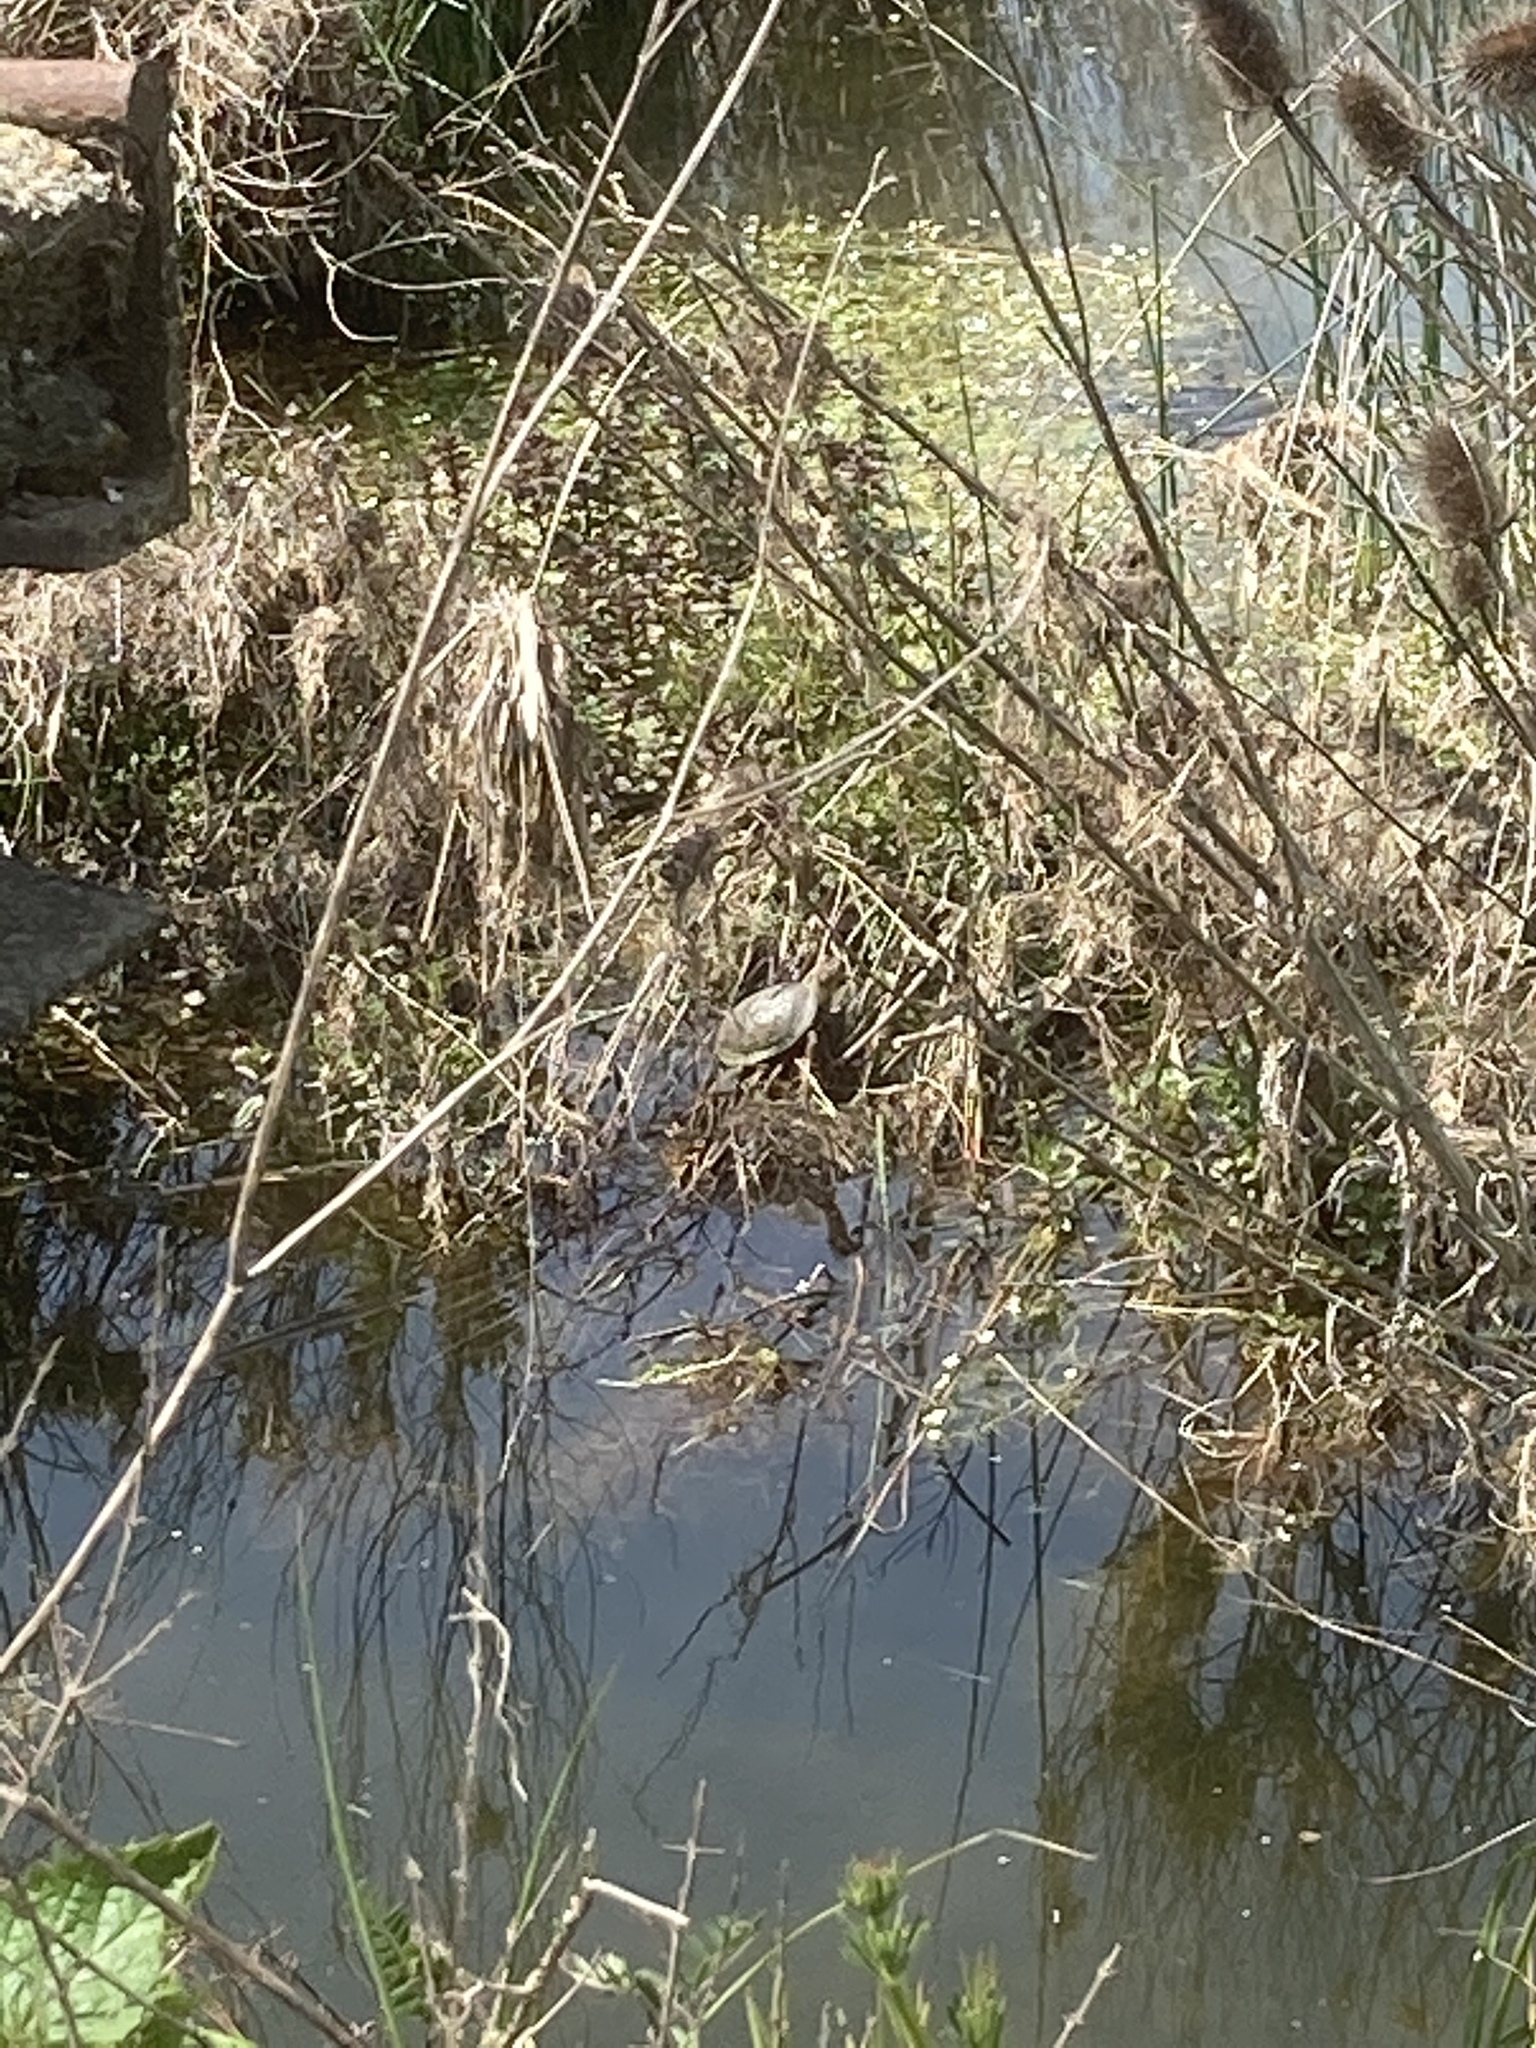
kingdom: Animalia
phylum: Chordata
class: Testudines
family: Emydidae
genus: Emys
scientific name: Emys orbicularis
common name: European pond turtle
